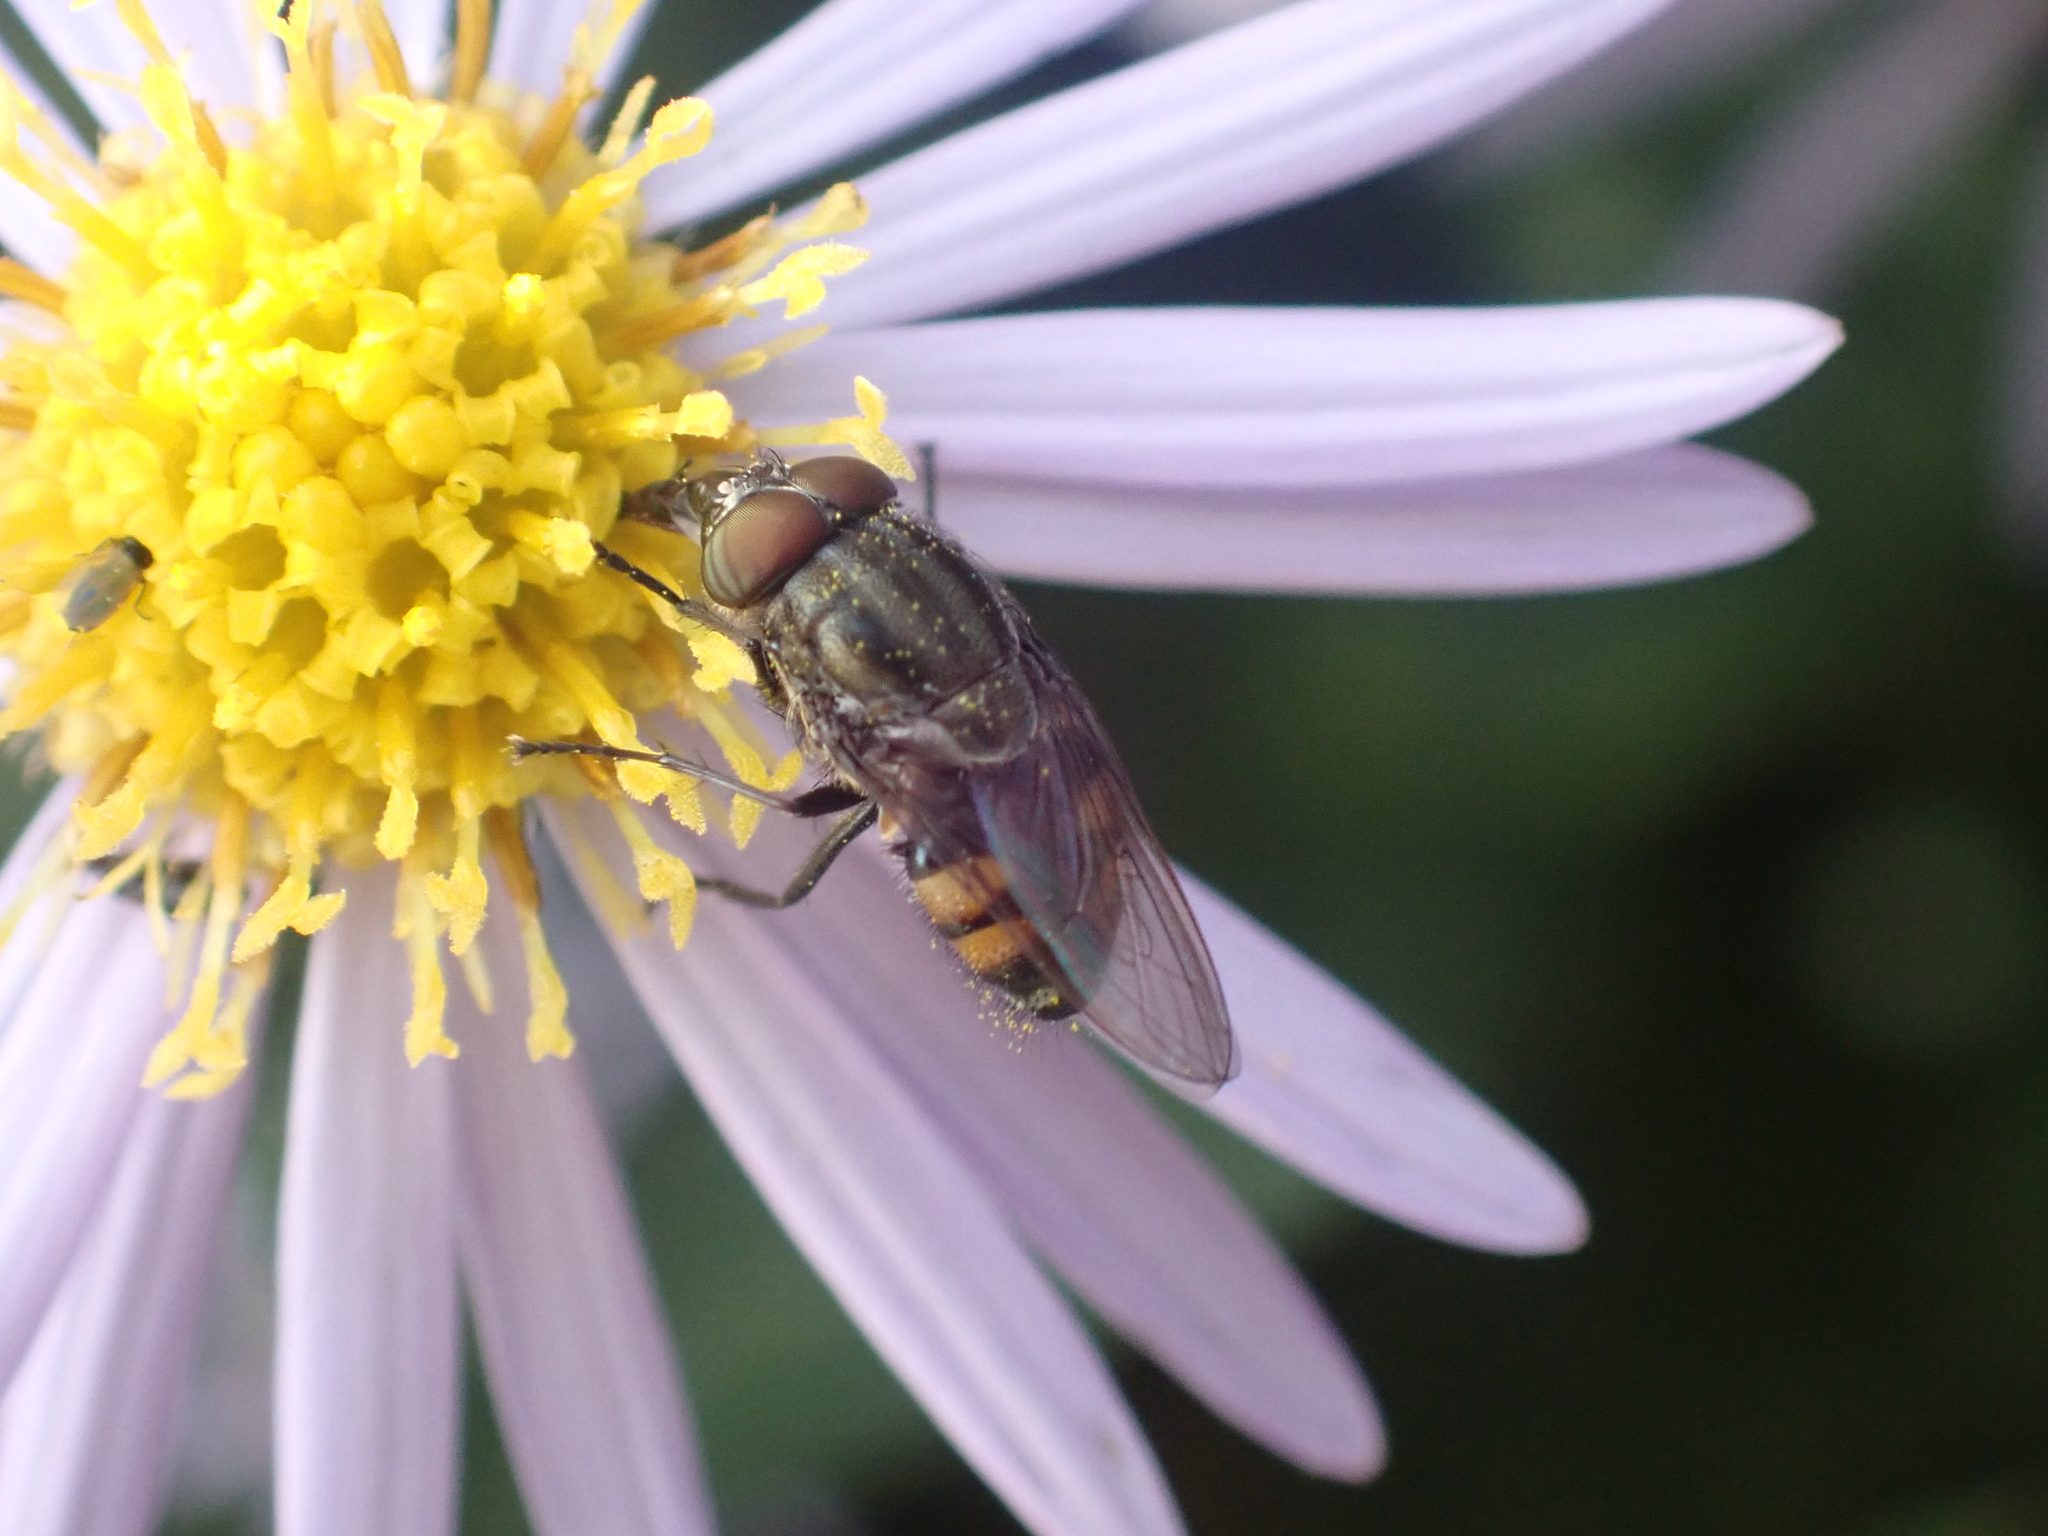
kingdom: Animalia
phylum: Arthropoda
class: Insecta
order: Diptera
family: Calliphoridae
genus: Stomorhina
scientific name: Stomorhina lunata
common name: Locust blowfly
